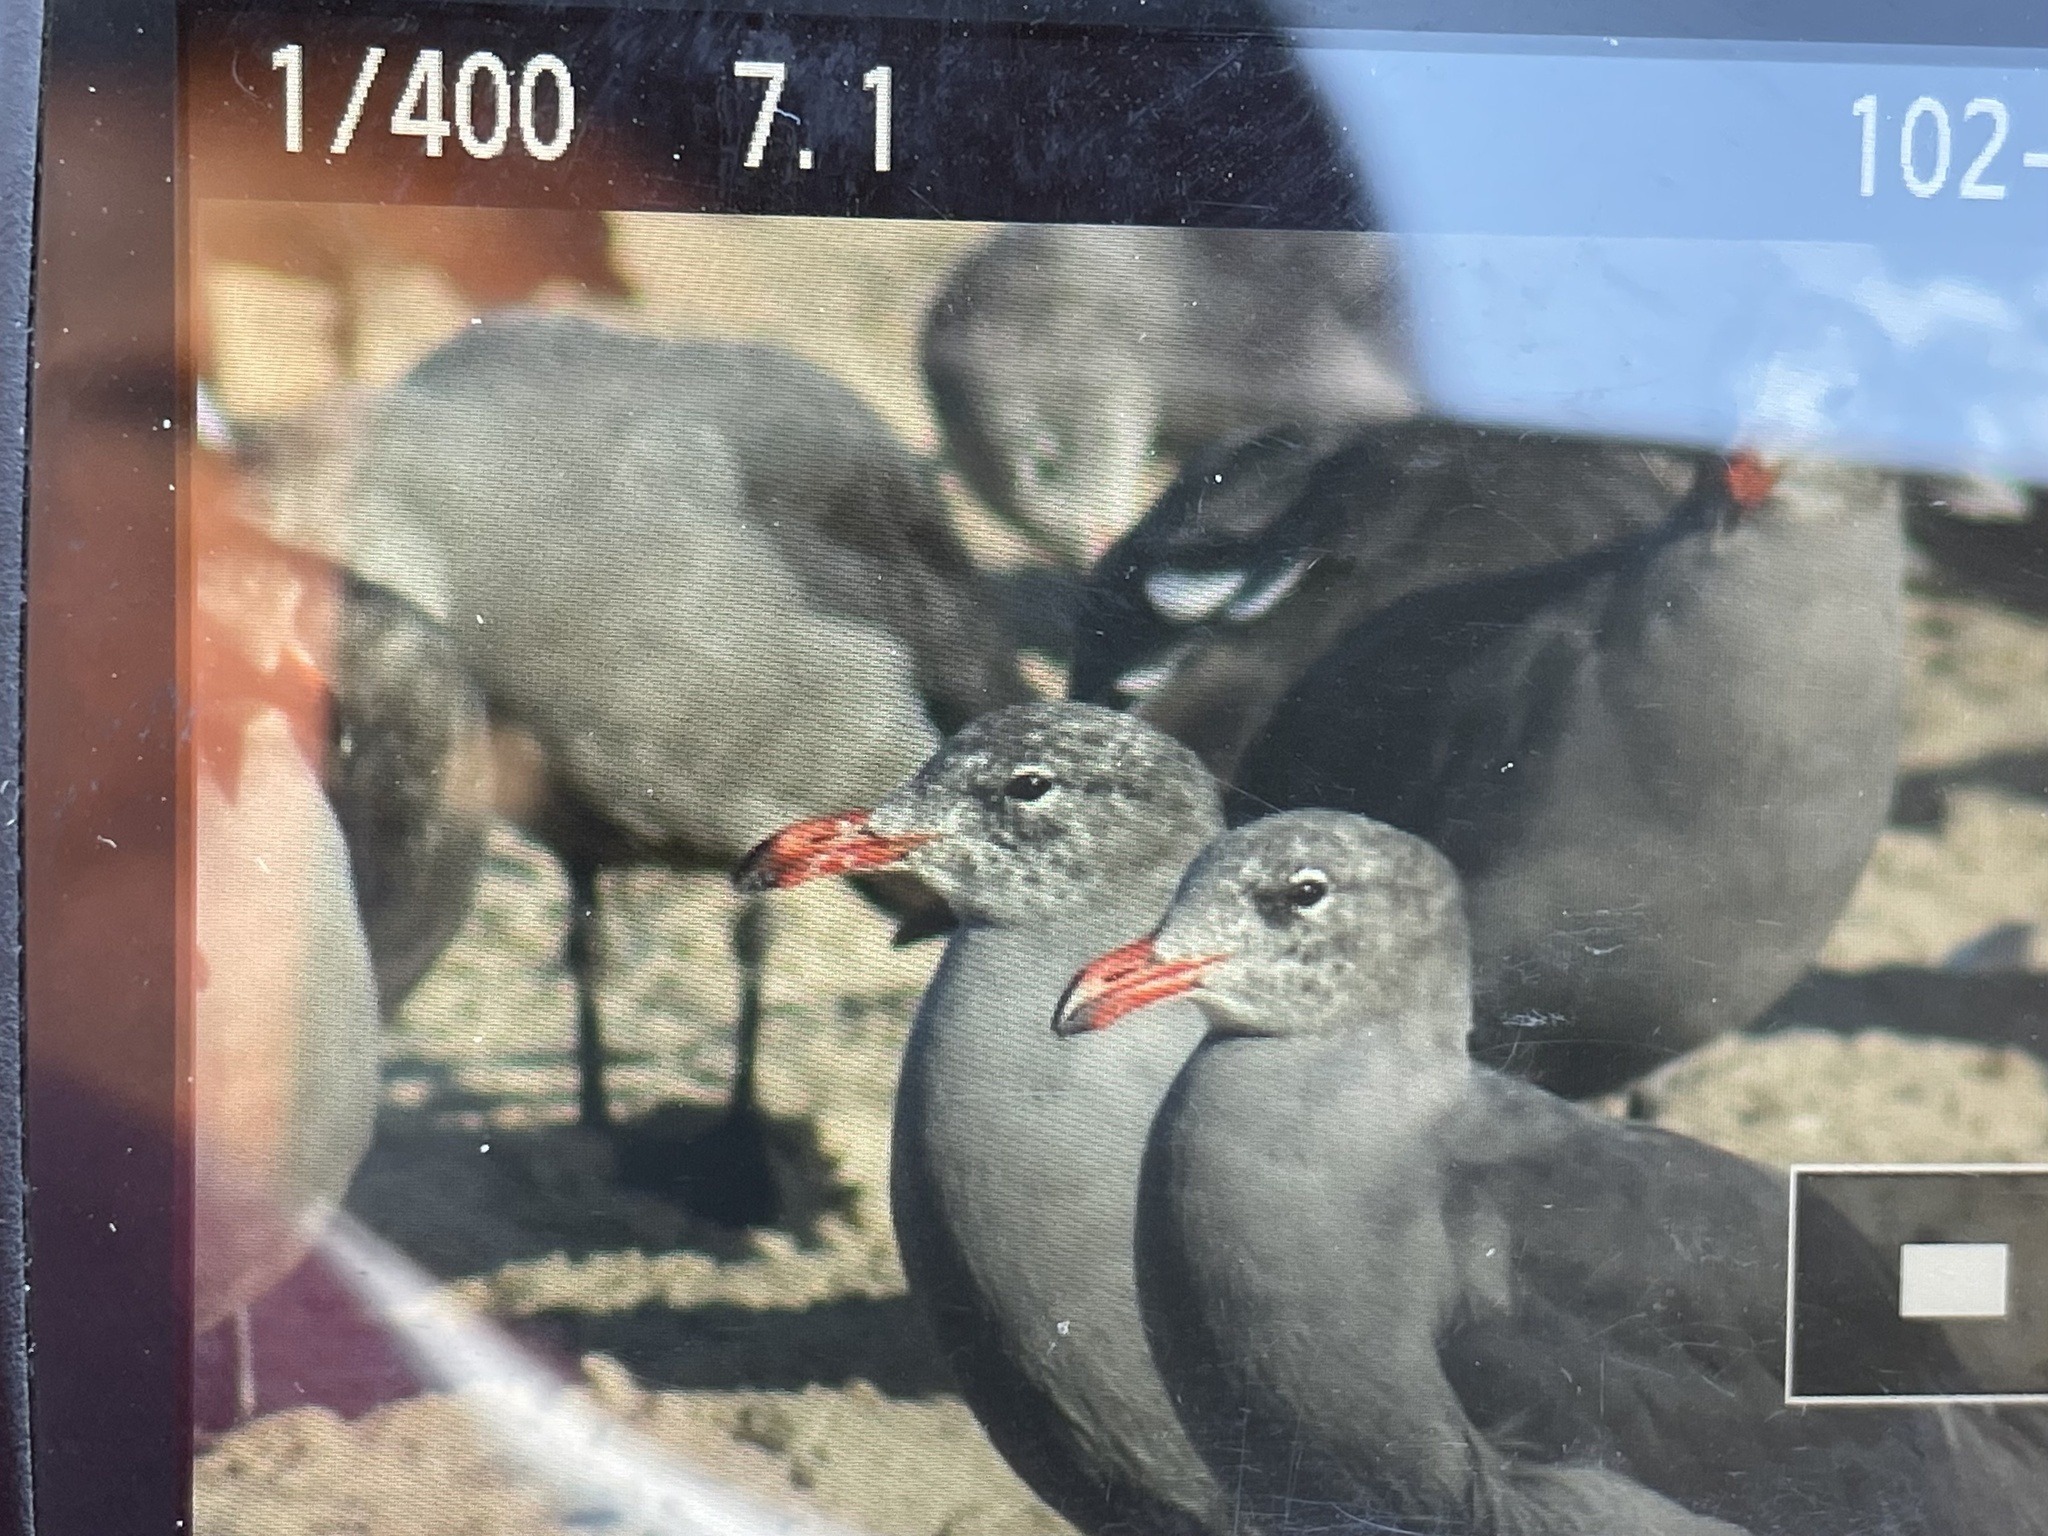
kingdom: Animalia
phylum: Chordata
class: Aves
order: Charadriiformes
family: Laridae
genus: Larus
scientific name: Larus heermanni
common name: Heermann's gull
